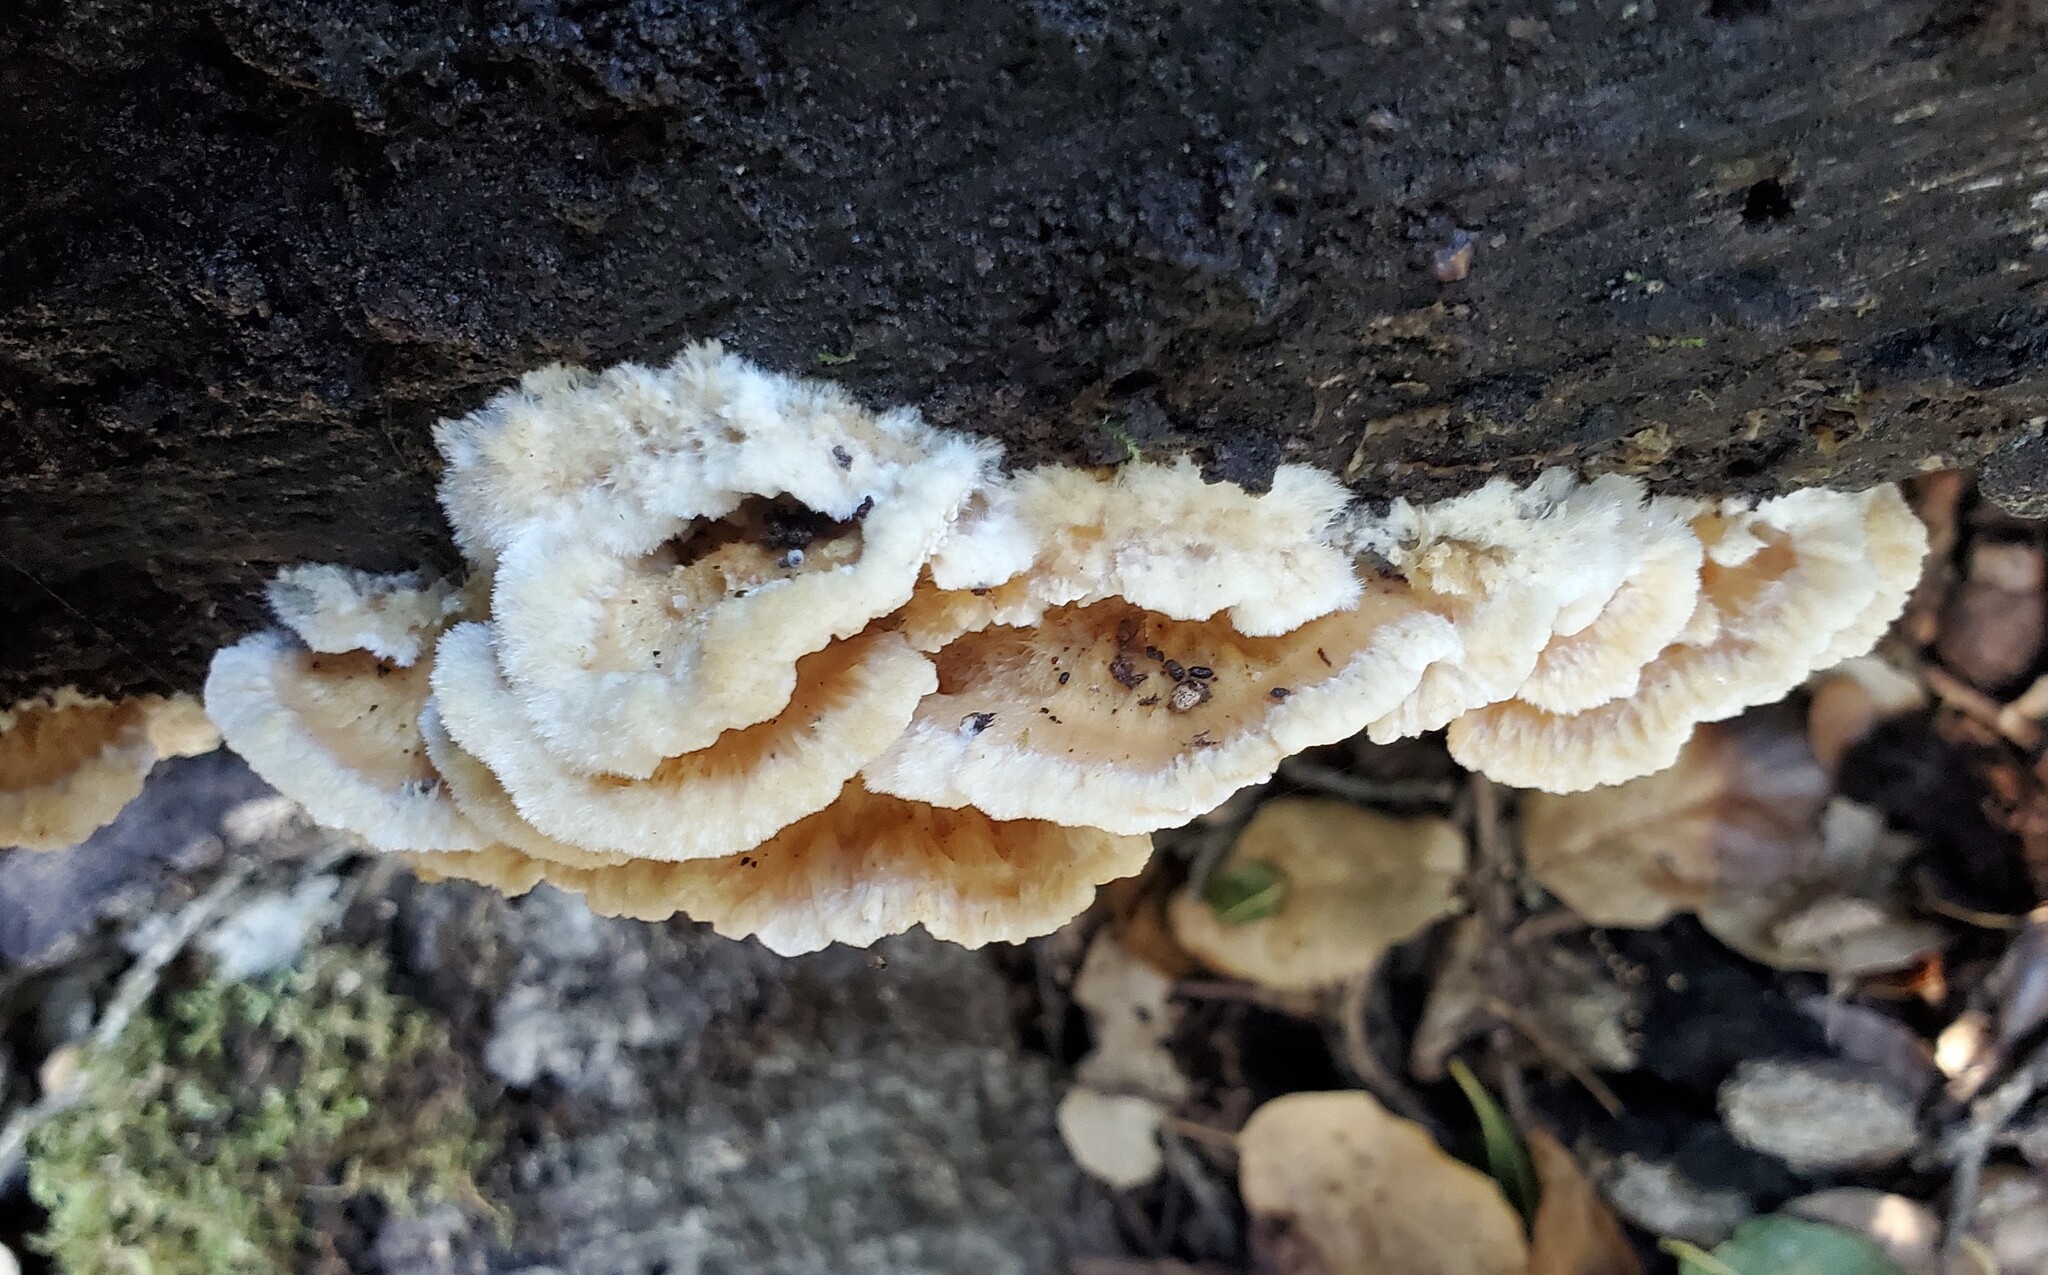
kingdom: Fungi
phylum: Basidiomycota
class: Agaricomycetes
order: Polyporales
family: Irpicaceae
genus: Trametopsis
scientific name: Trametopsis cervina
